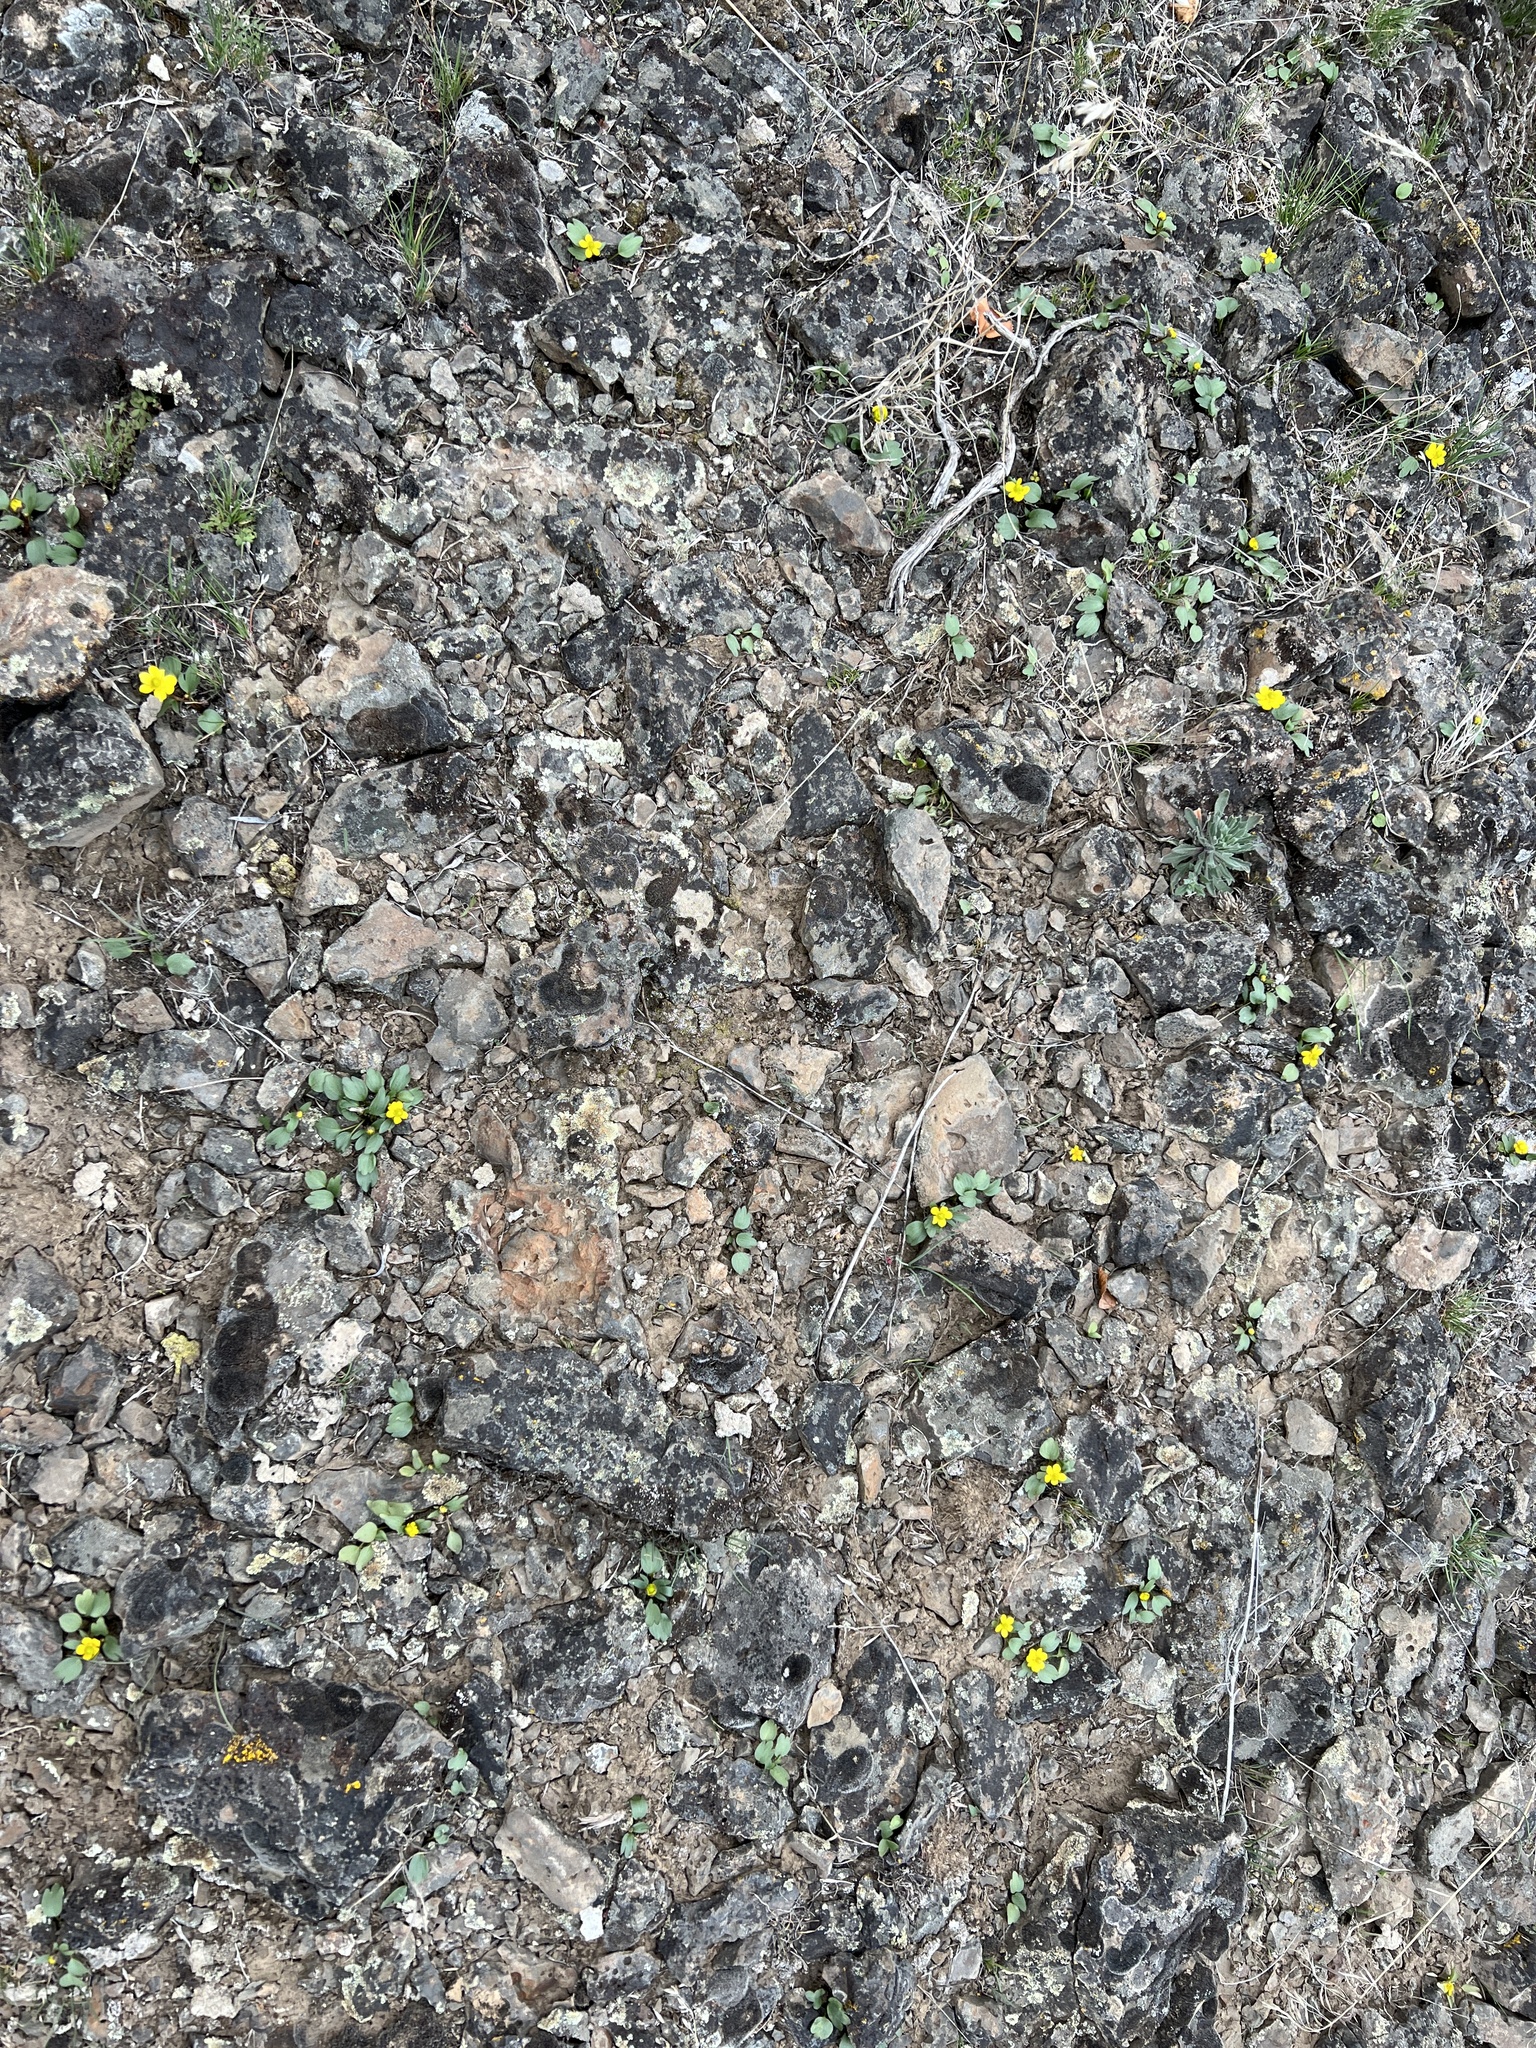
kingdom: Plantae
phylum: Tracheophyta
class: Magnoliopsida
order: Ranunculales
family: Ranunculaceae
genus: Ranunculus
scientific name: Ranunculus glaberrimus
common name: Sagebrush buttercup
